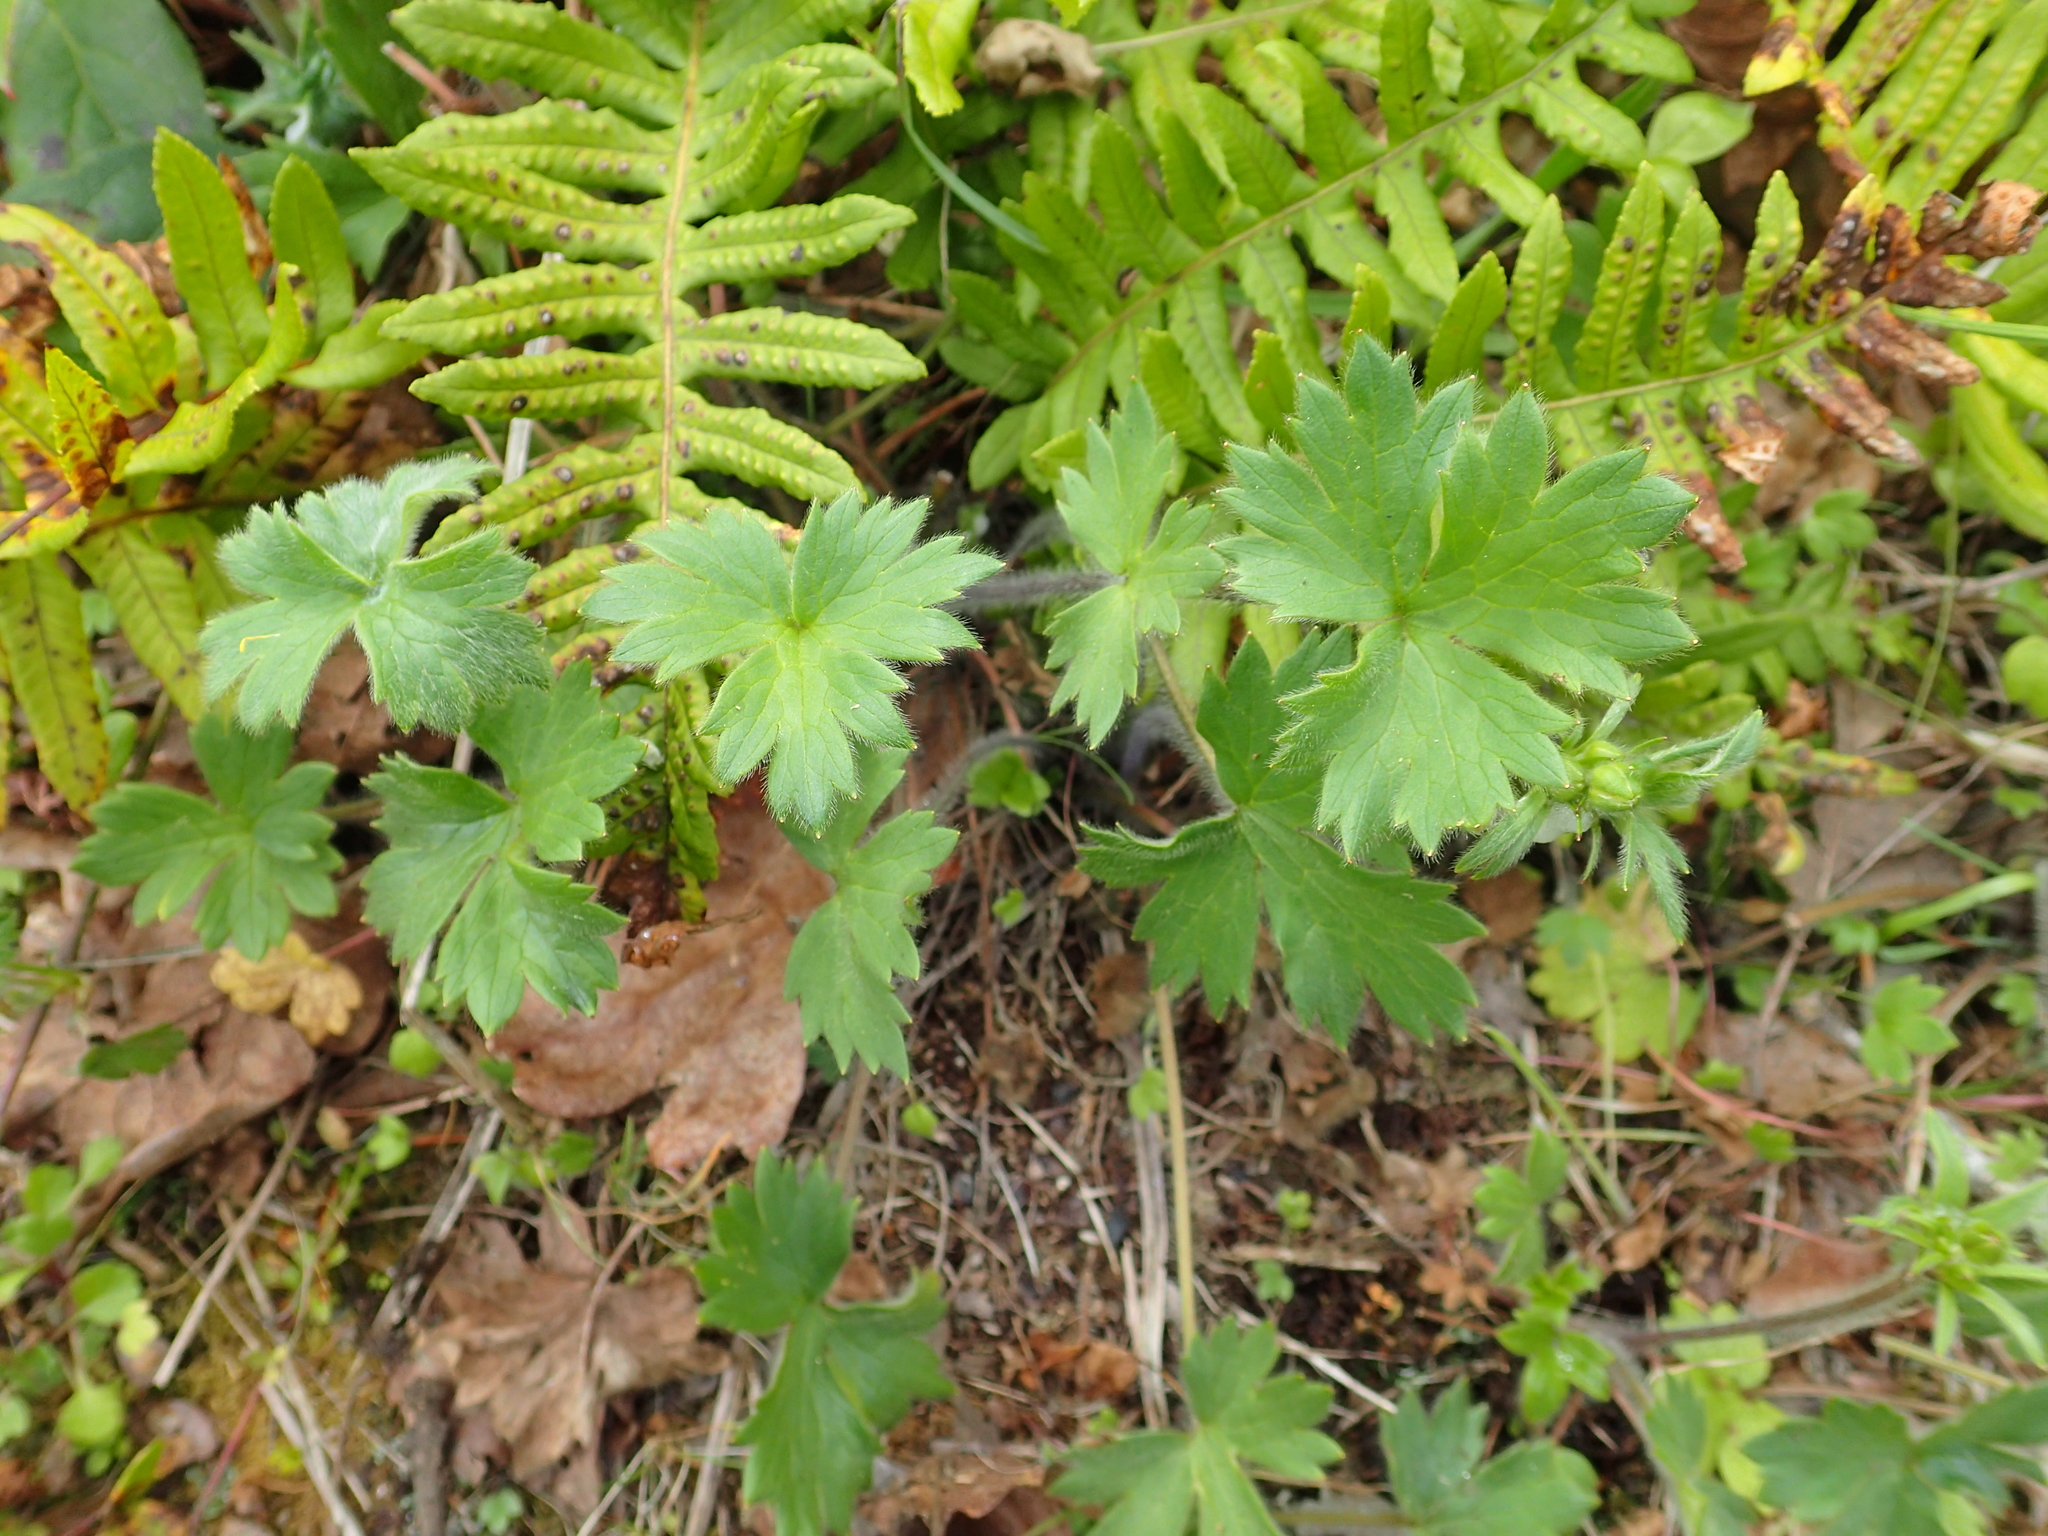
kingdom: Plantae
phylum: Tracheophyta
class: Magnoliopsida
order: Ranunculales
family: Ranunculaceae
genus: Ranunculus
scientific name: Ranunculus occidentalis
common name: Western buttercup
